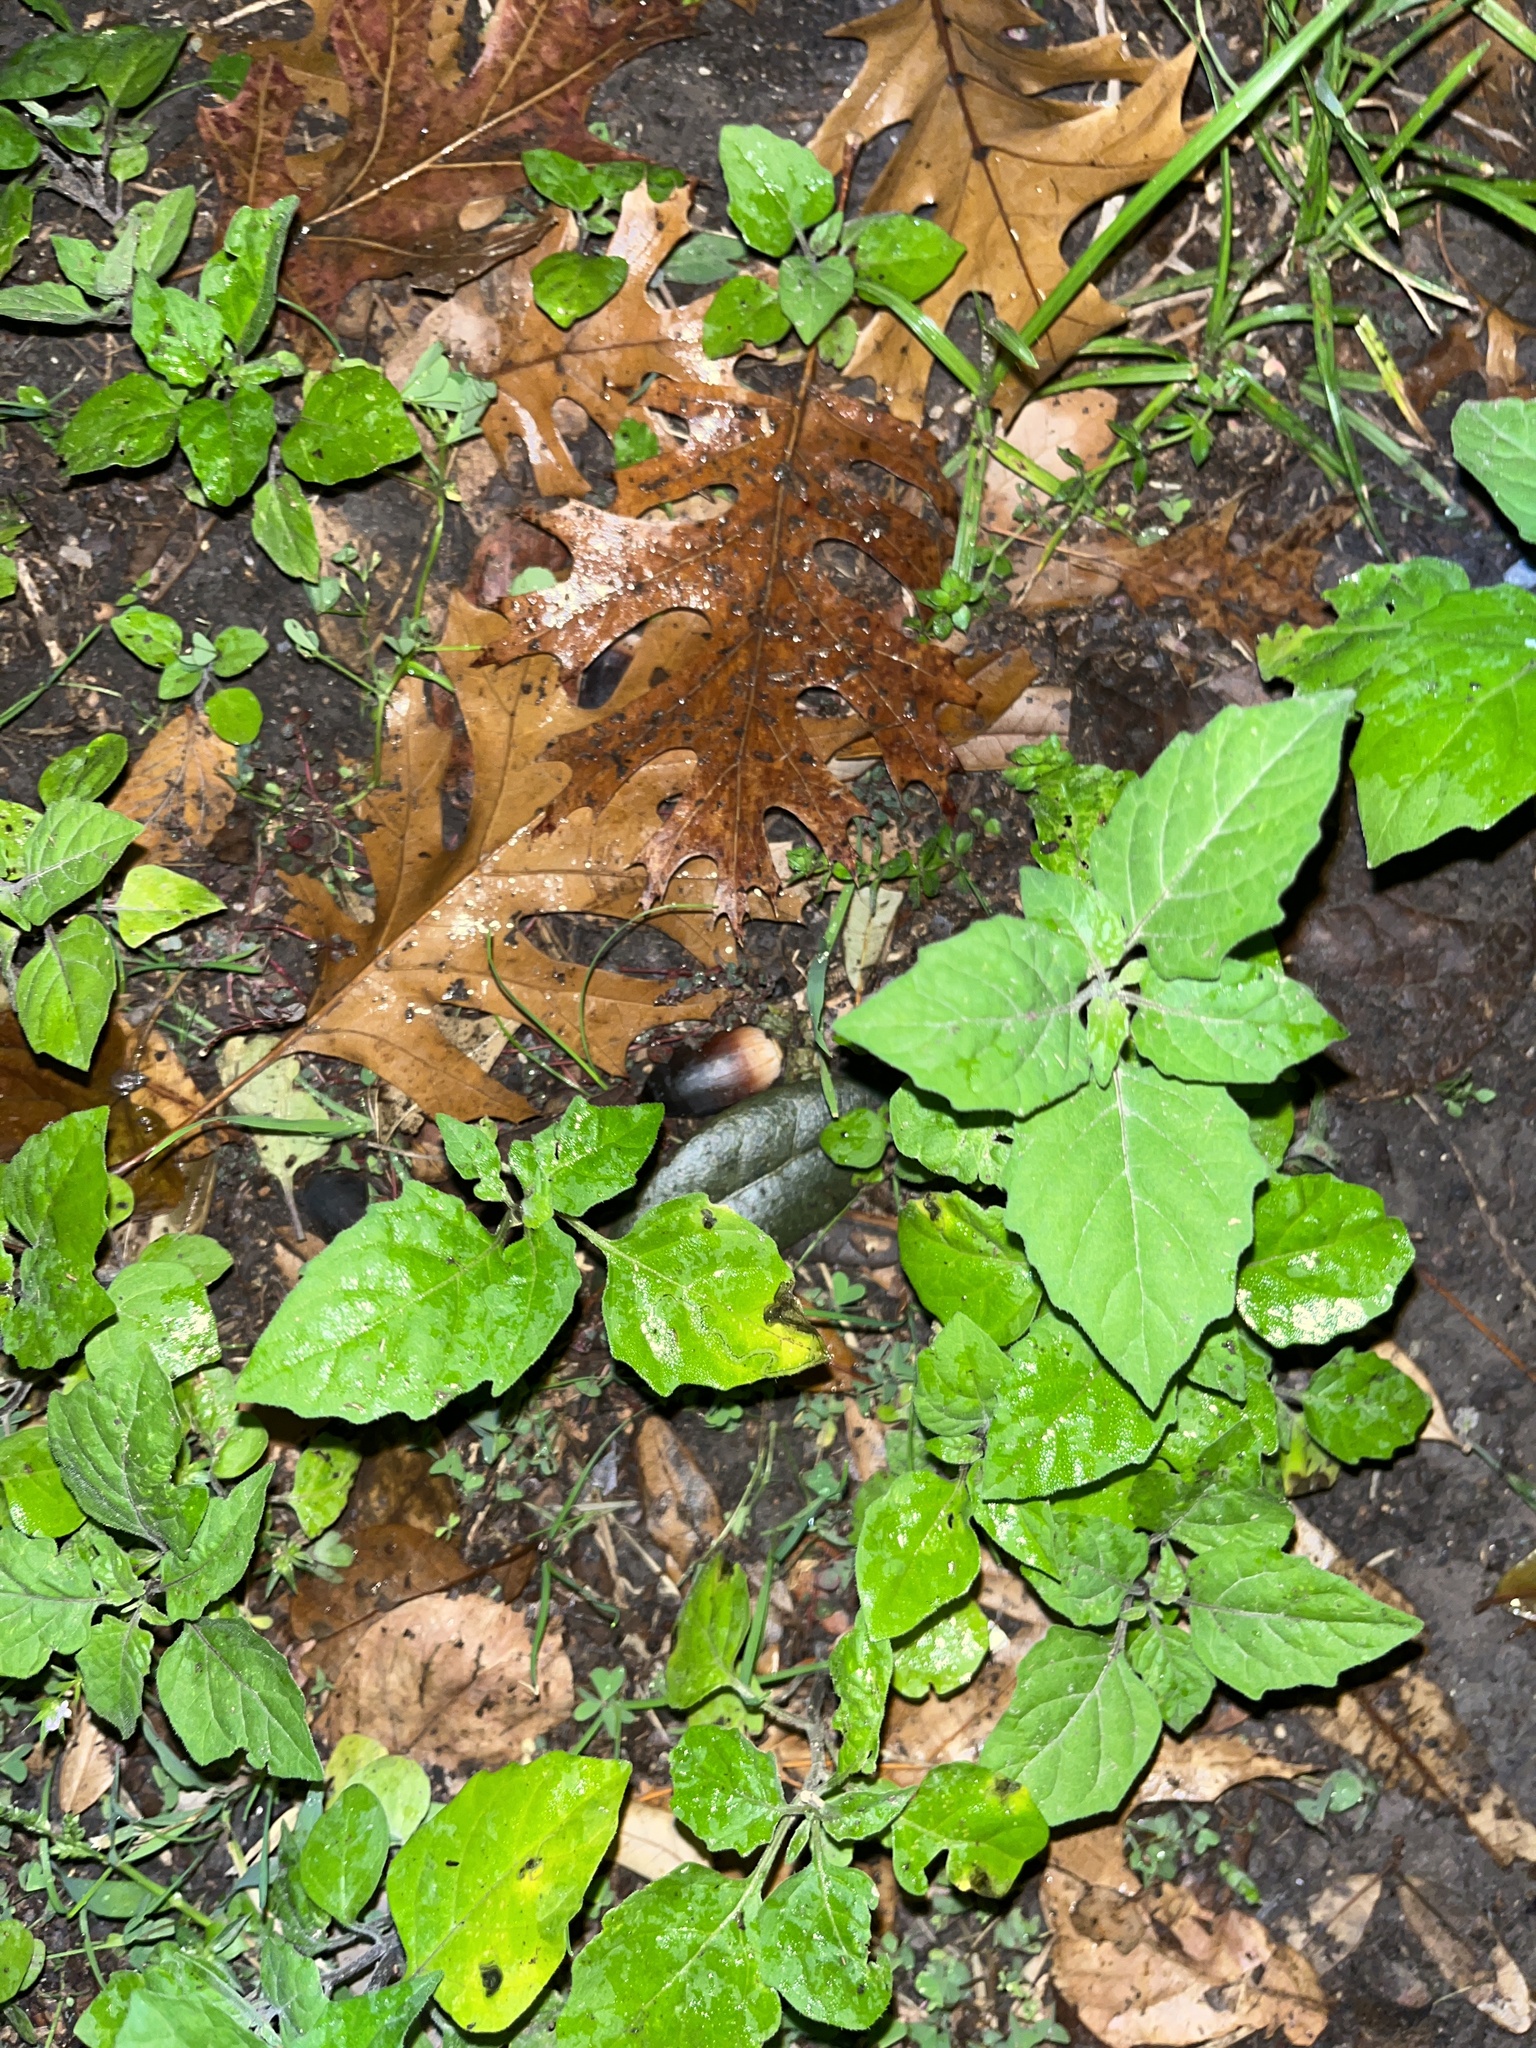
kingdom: Plantae
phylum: Tracheophyta
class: Magnoliopsida
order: Solanales
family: Solanaceae
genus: Solanum
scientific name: Solanum
